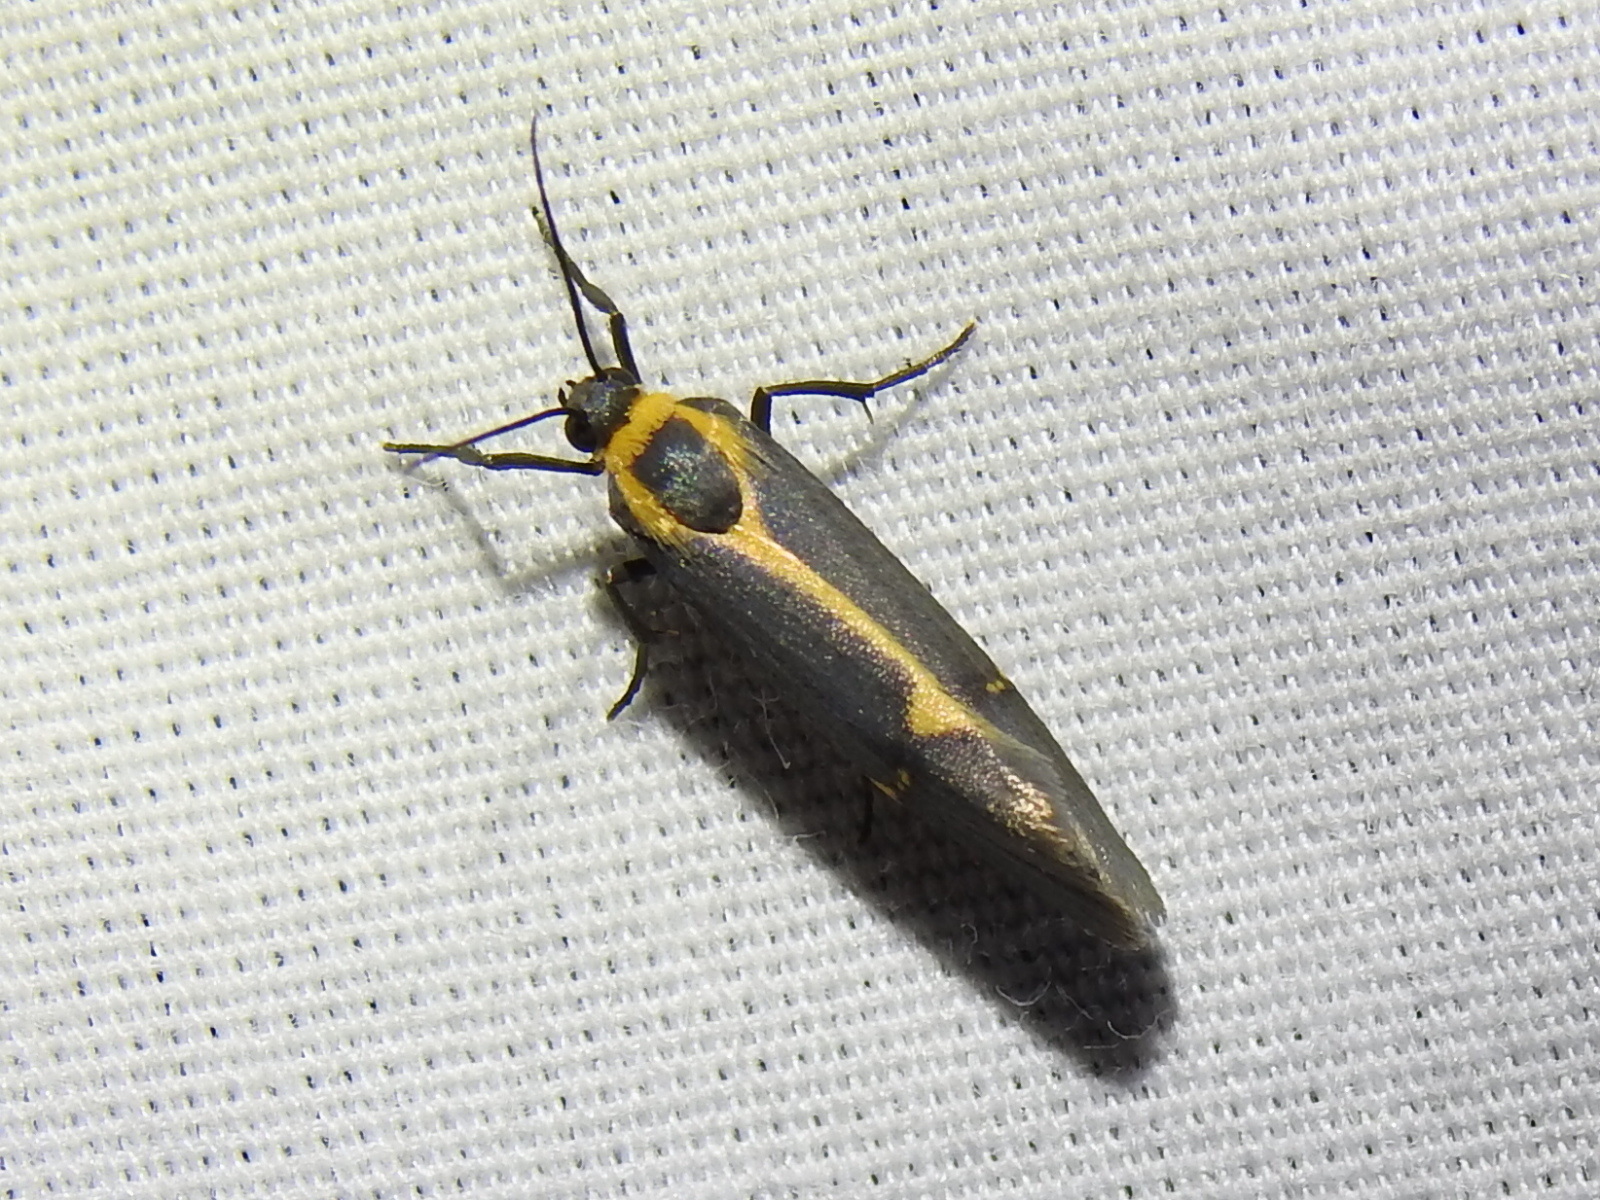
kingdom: Animalia
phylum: Arthropoda
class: Insecta
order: Lepidoptera
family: Erebidae
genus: Cisthene
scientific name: Cisthene barnesii
